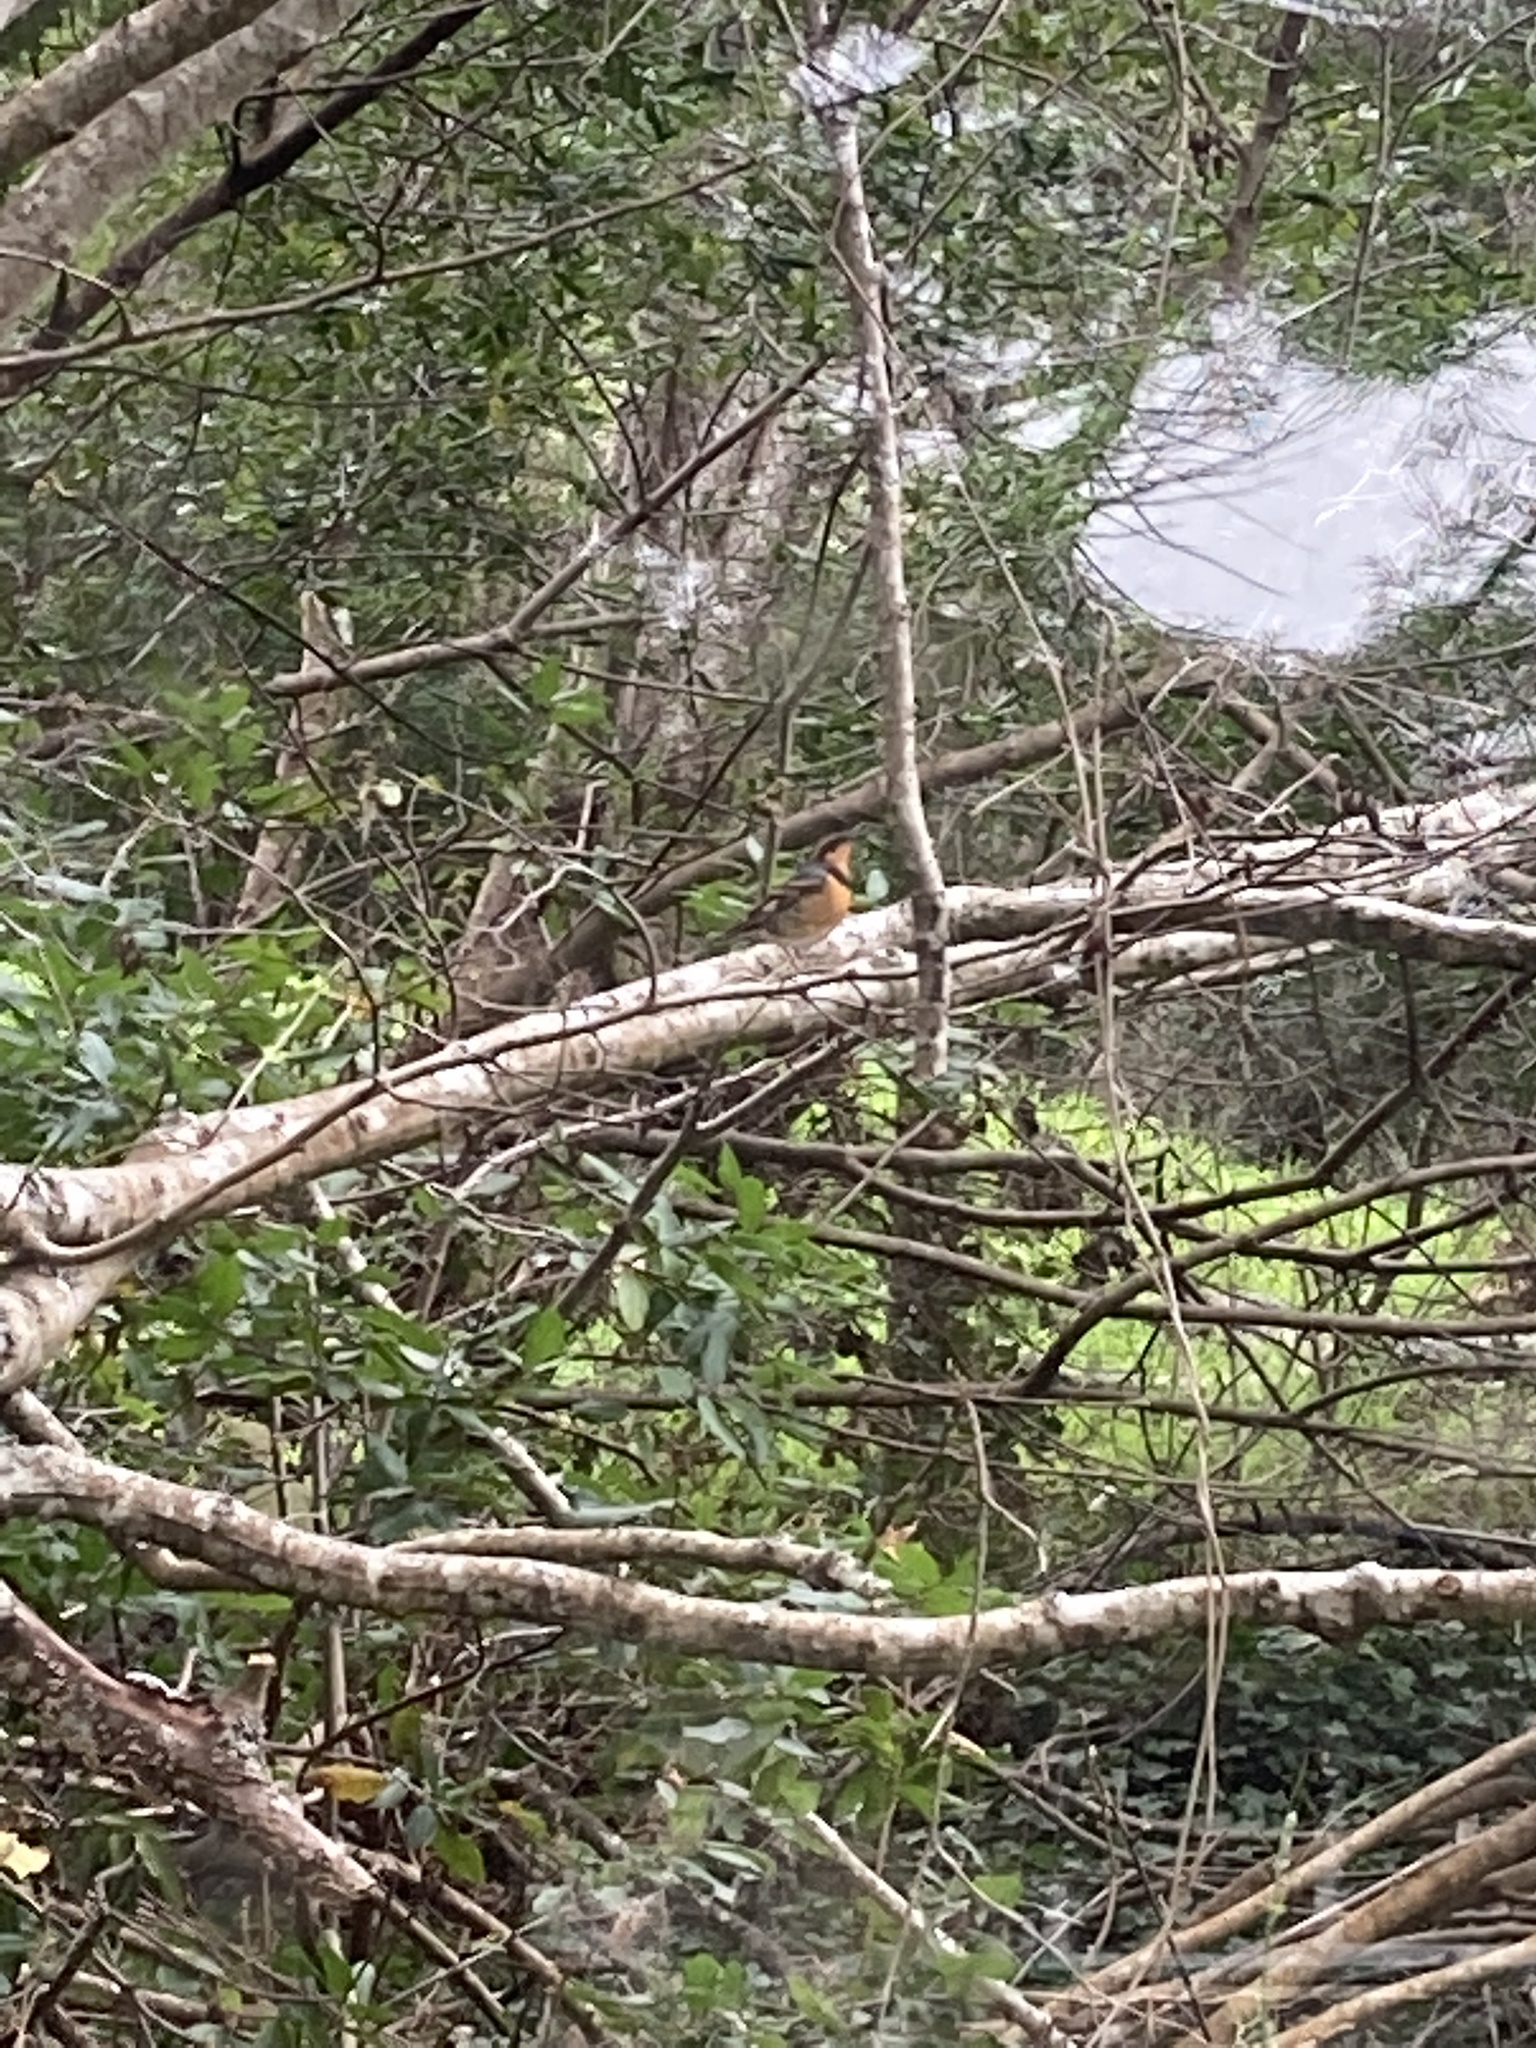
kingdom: Animalia
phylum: Chordata
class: Aves
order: Passeriformes
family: Turdidae
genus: Ixoreus
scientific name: Ixoreus naevius
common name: Varied thrush
